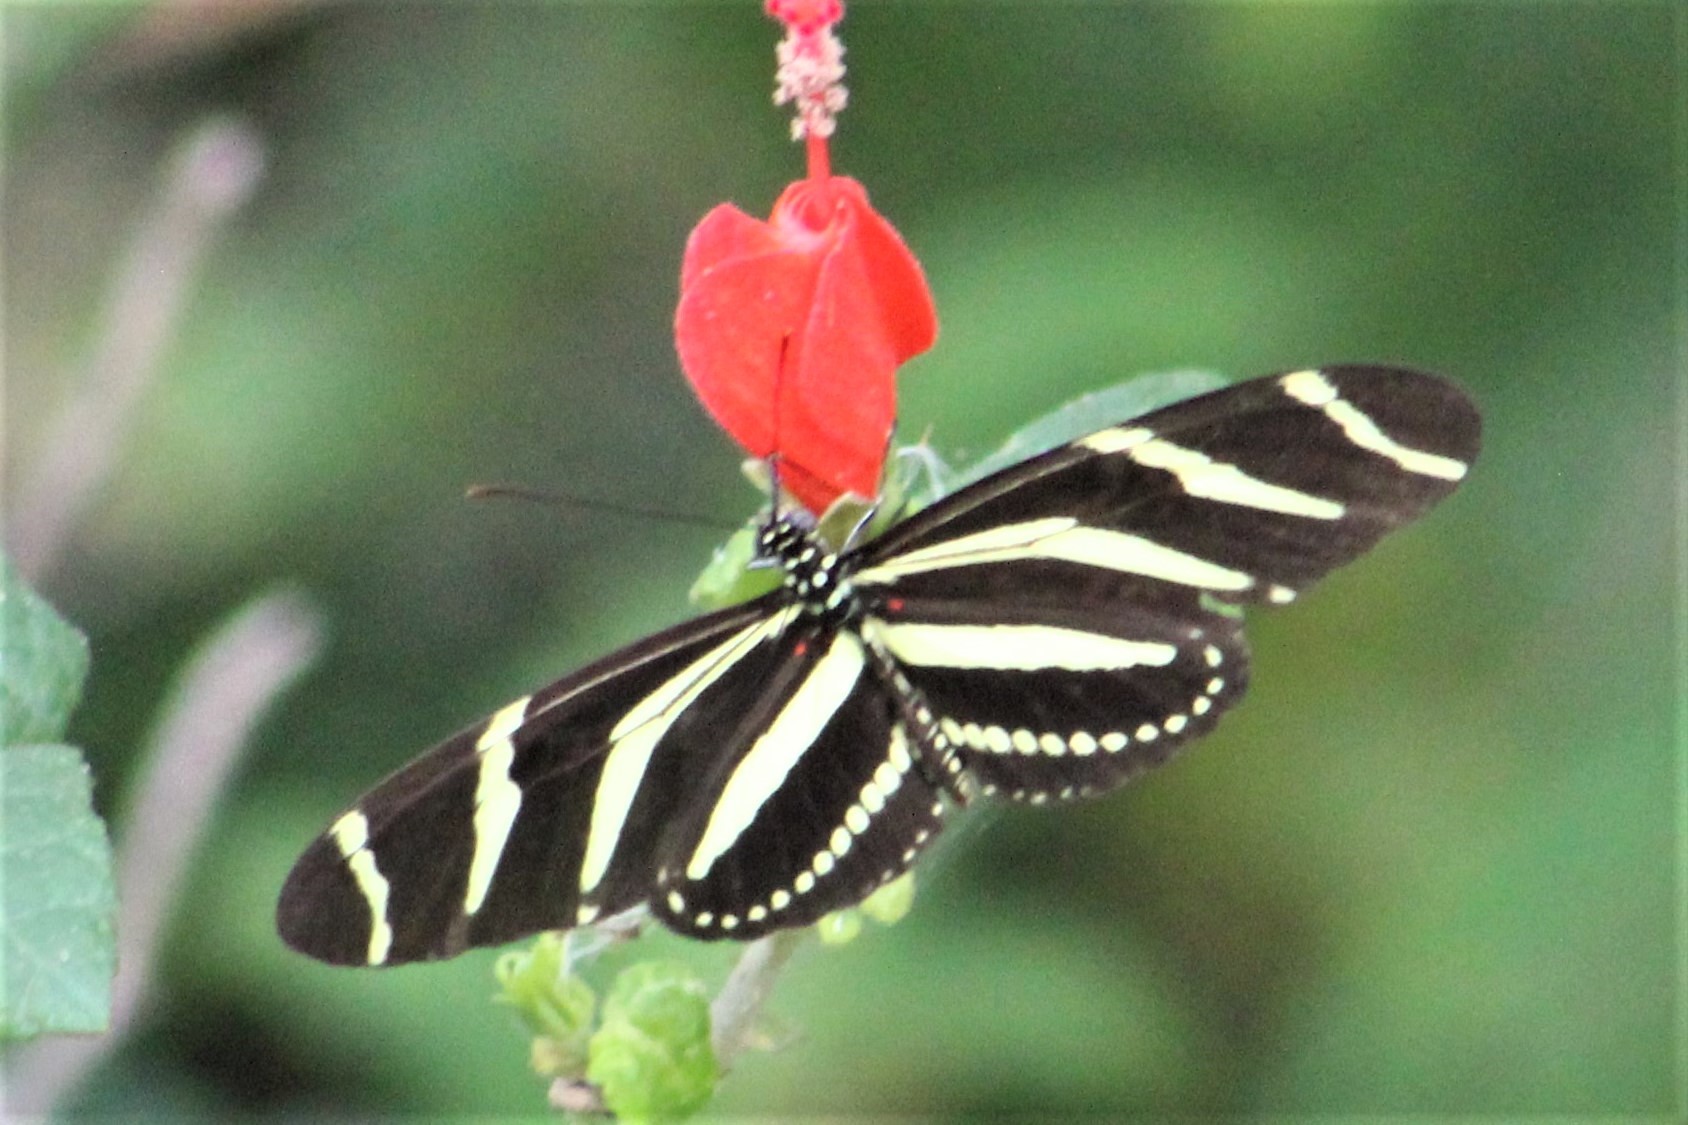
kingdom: Animalia
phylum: Arthropoda
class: Insecta
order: Lepidoptera
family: Nymphalidae
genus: Heliconius
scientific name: Heliconius charithonia
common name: Zebra long wing
